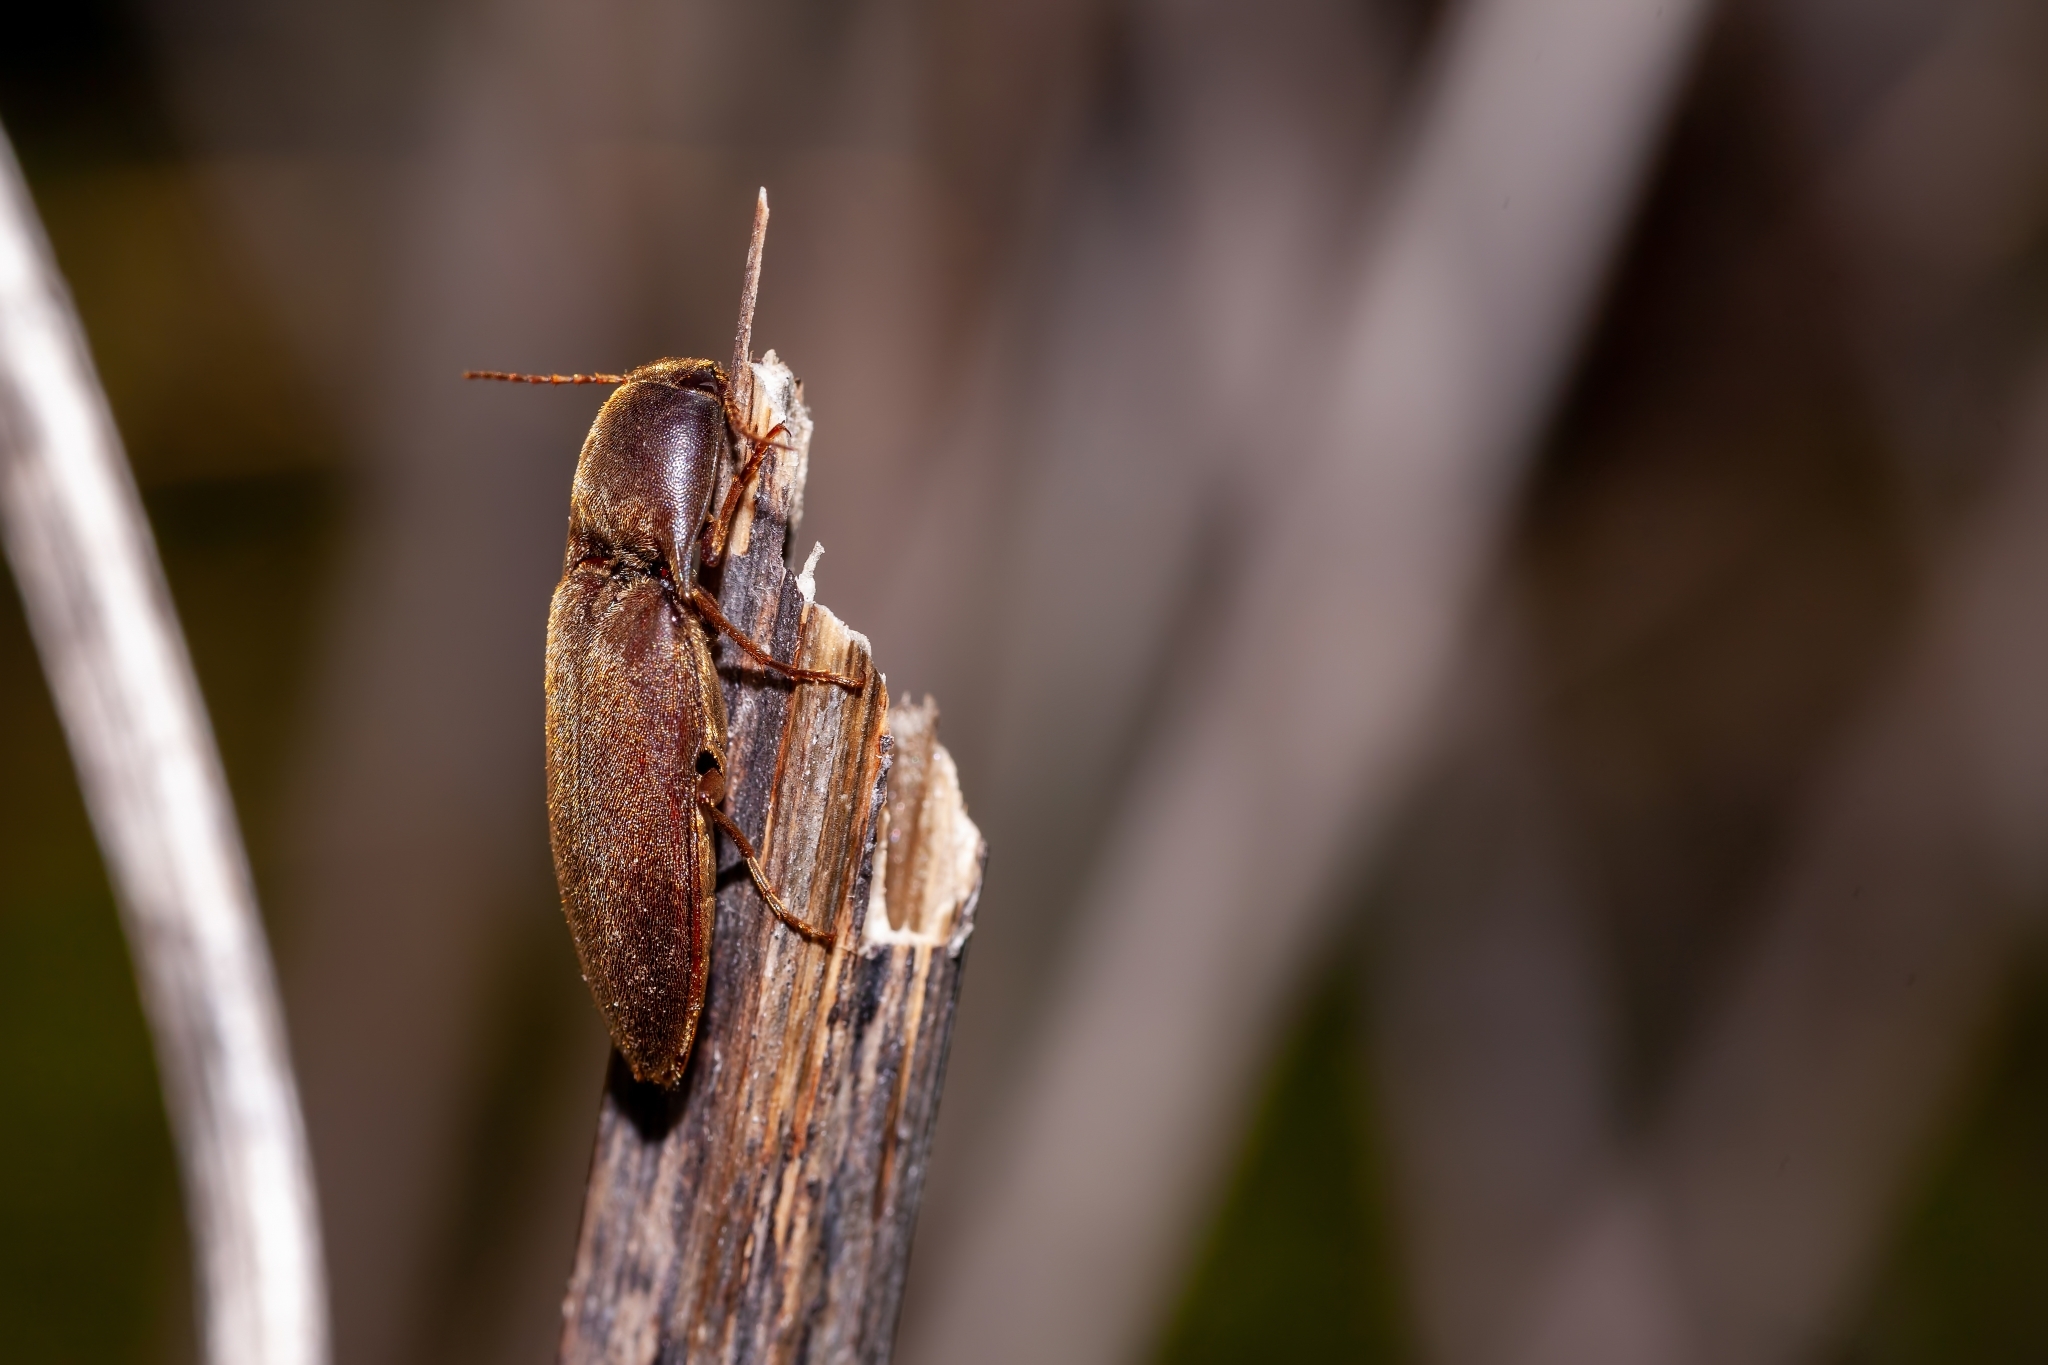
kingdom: Animalia
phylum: Arthropoda
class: Insecta
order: Coleoptera
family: Elateridae
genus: Diplostethus
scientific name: Diplostethus
